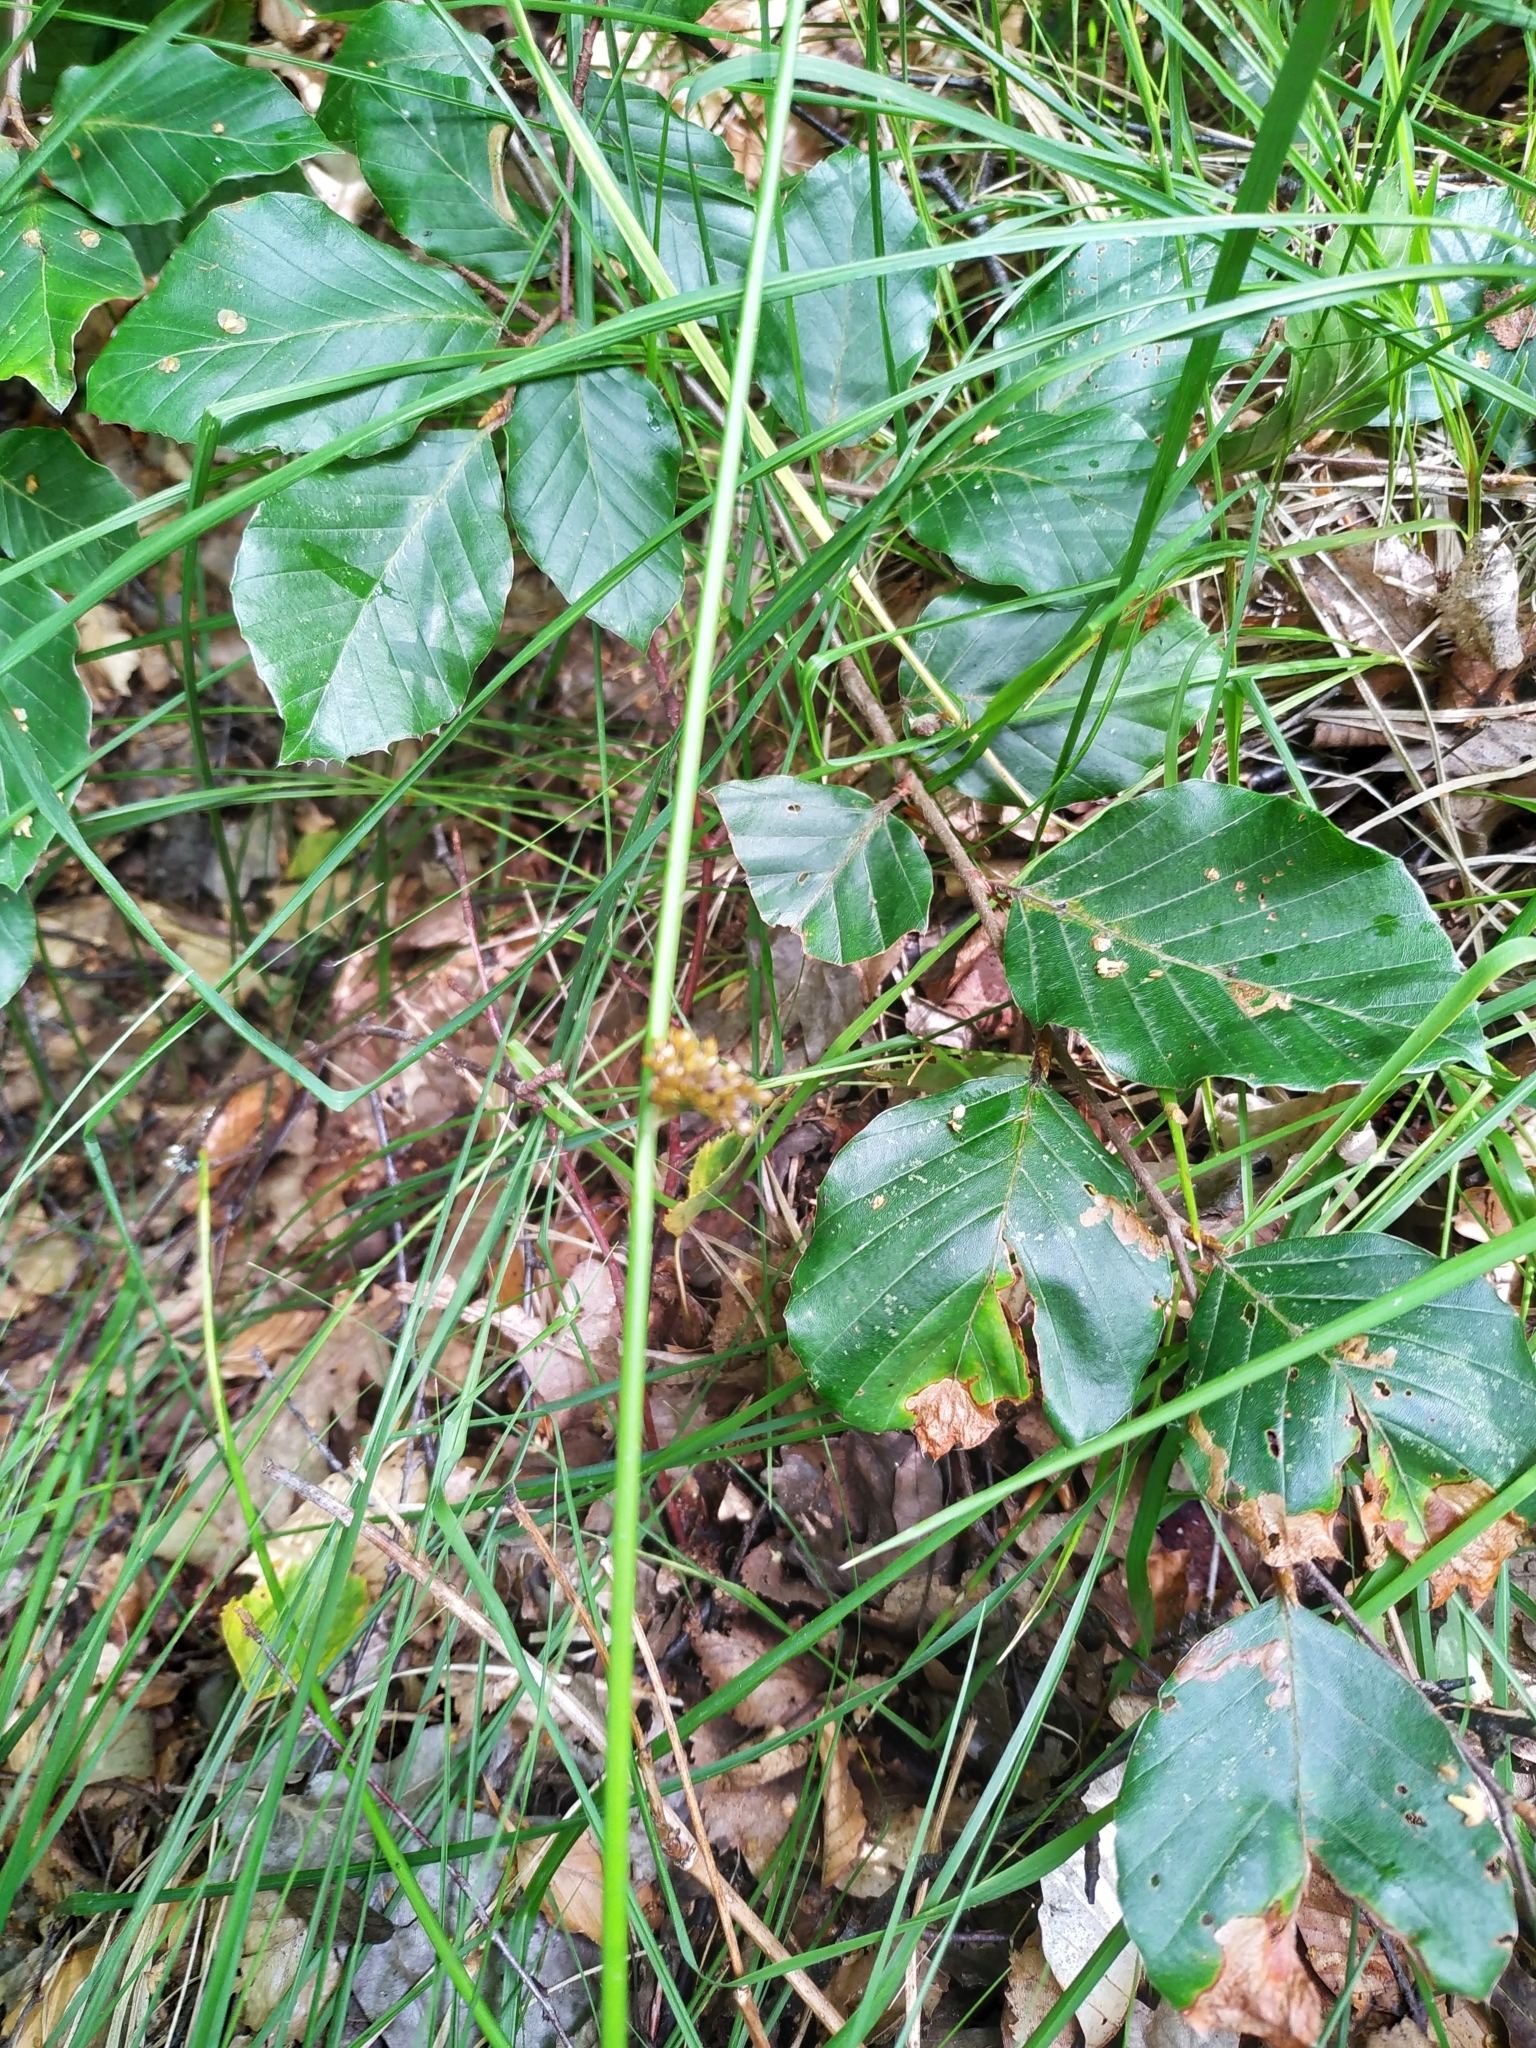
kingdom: Plantae
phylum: Tracheophyta
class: Liliopsida
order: Poales
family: Juncaceae
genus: Juncus
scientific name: Juncus effusus
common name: Soft rush
